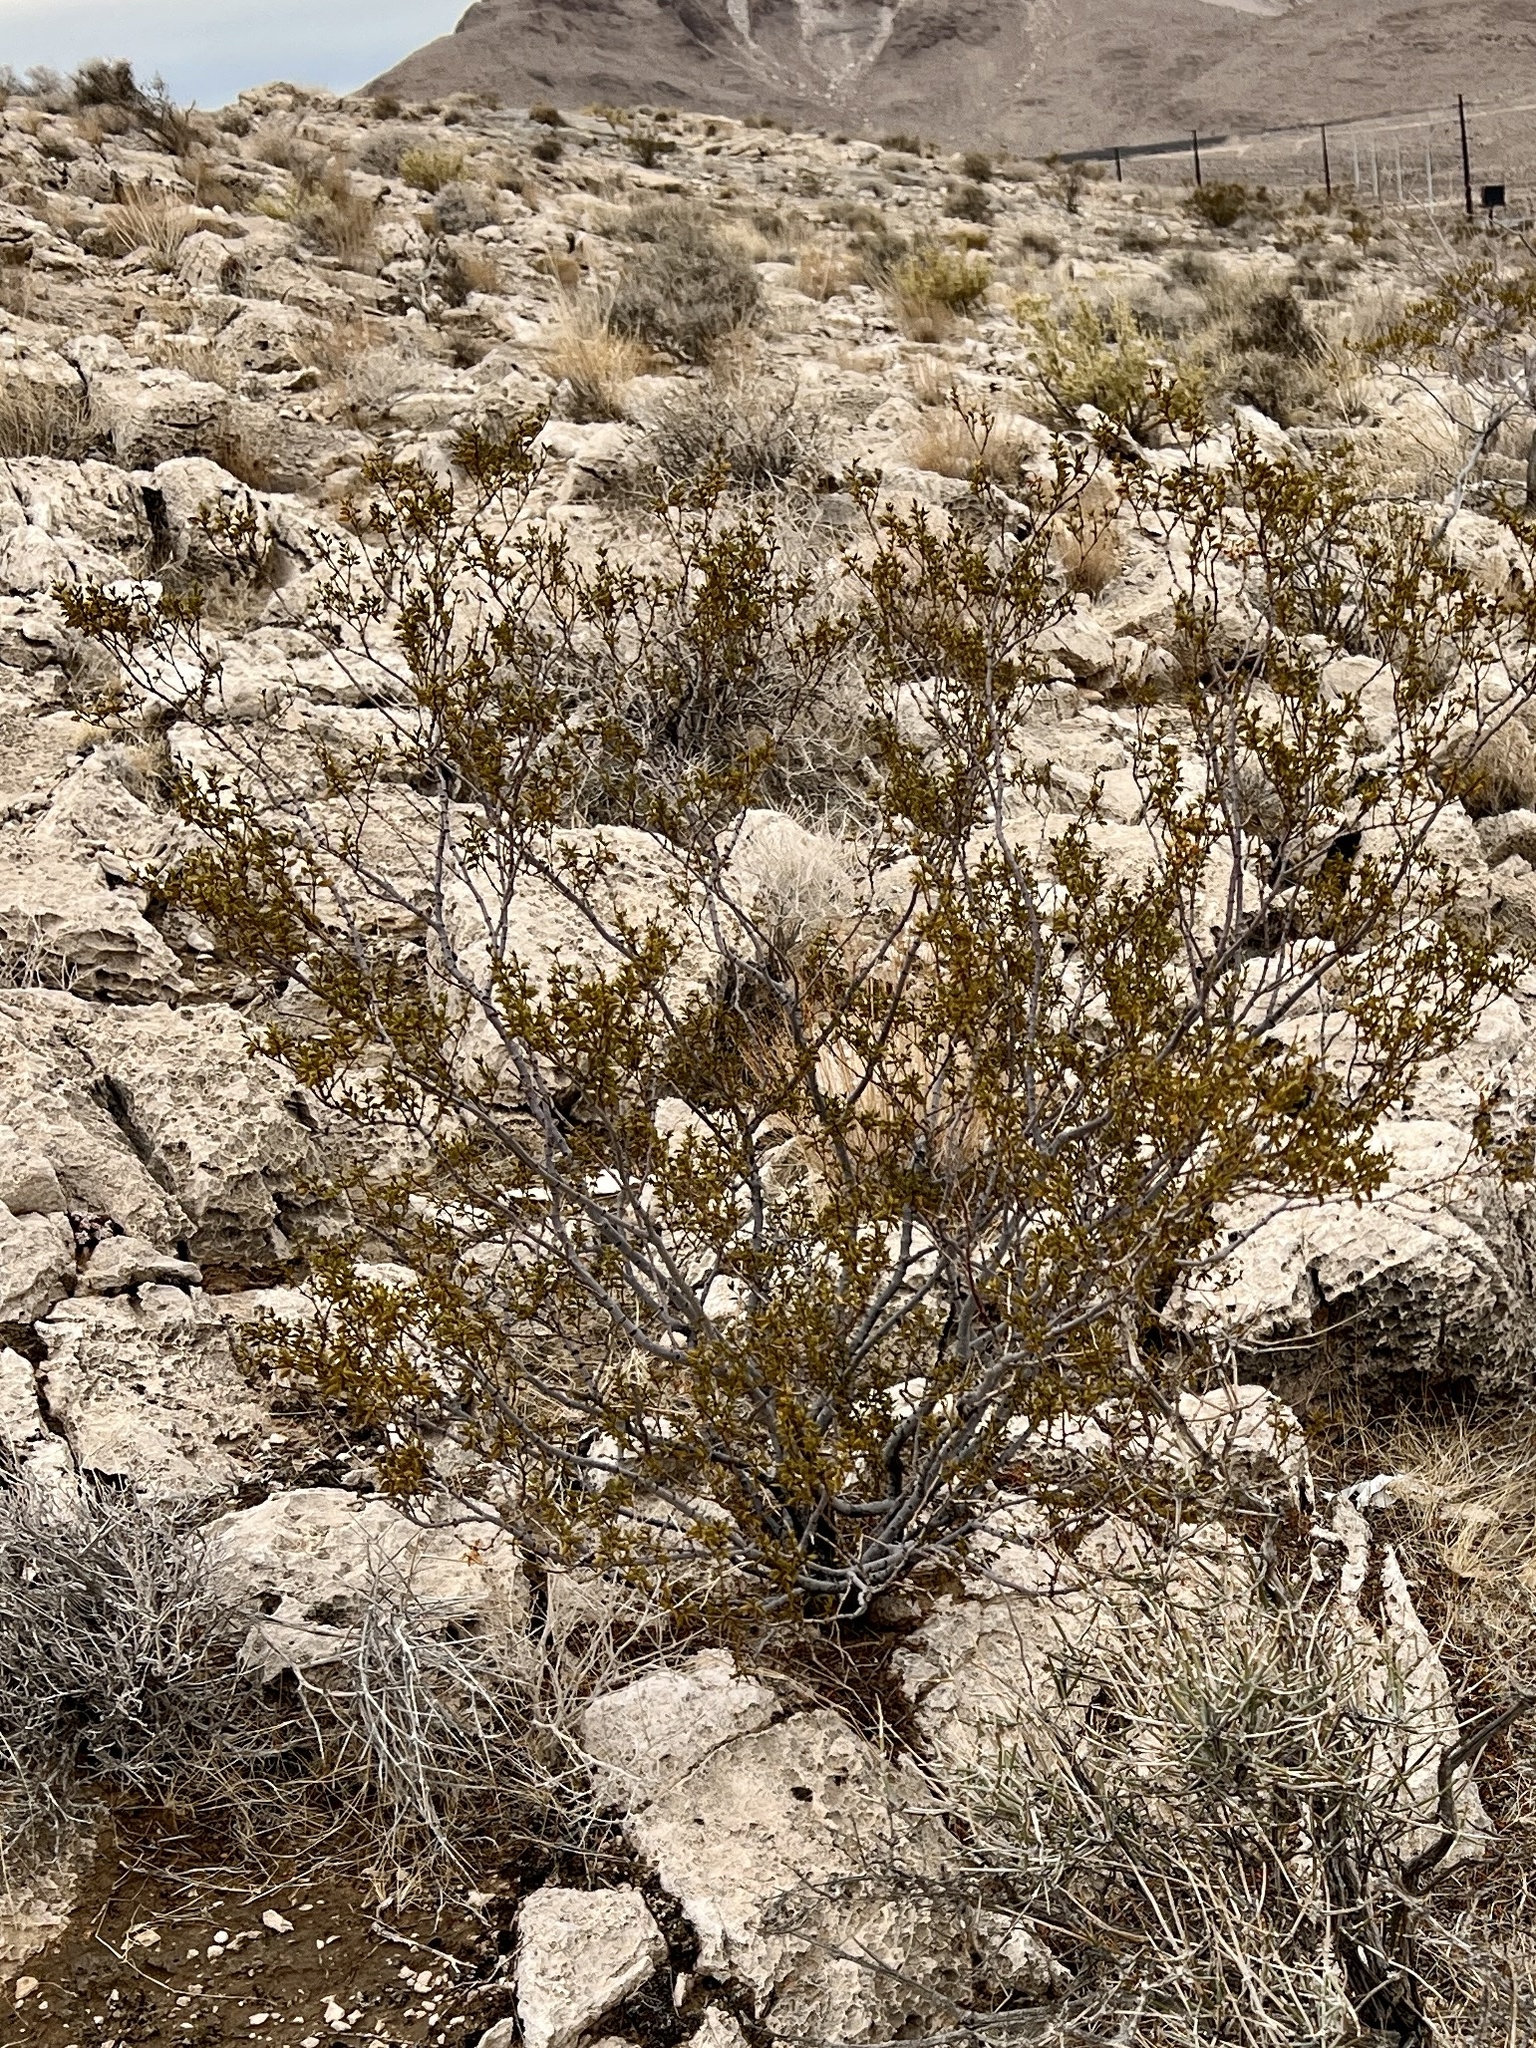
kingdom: Plantae
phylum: Tracheophyta
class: Magnoliopsida
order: Zygophyllales
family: Zygophyllaceae
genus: Larrea
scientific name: Larrea tridentata
